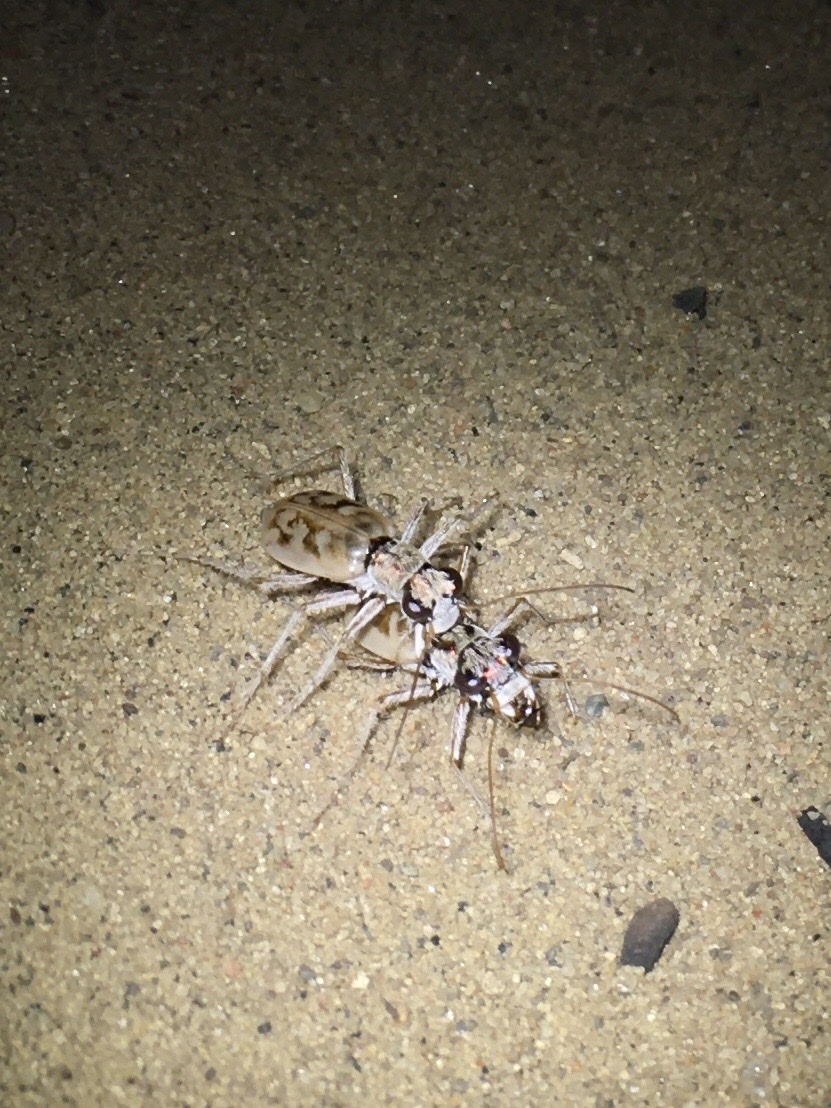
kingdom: Animalia
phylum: Arthropoda
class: Insecta
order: Coleoptera
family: Carabidae
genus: Ellipsoptera
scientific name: Ellipsoptera lepida
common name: Ghost tiger beetle
